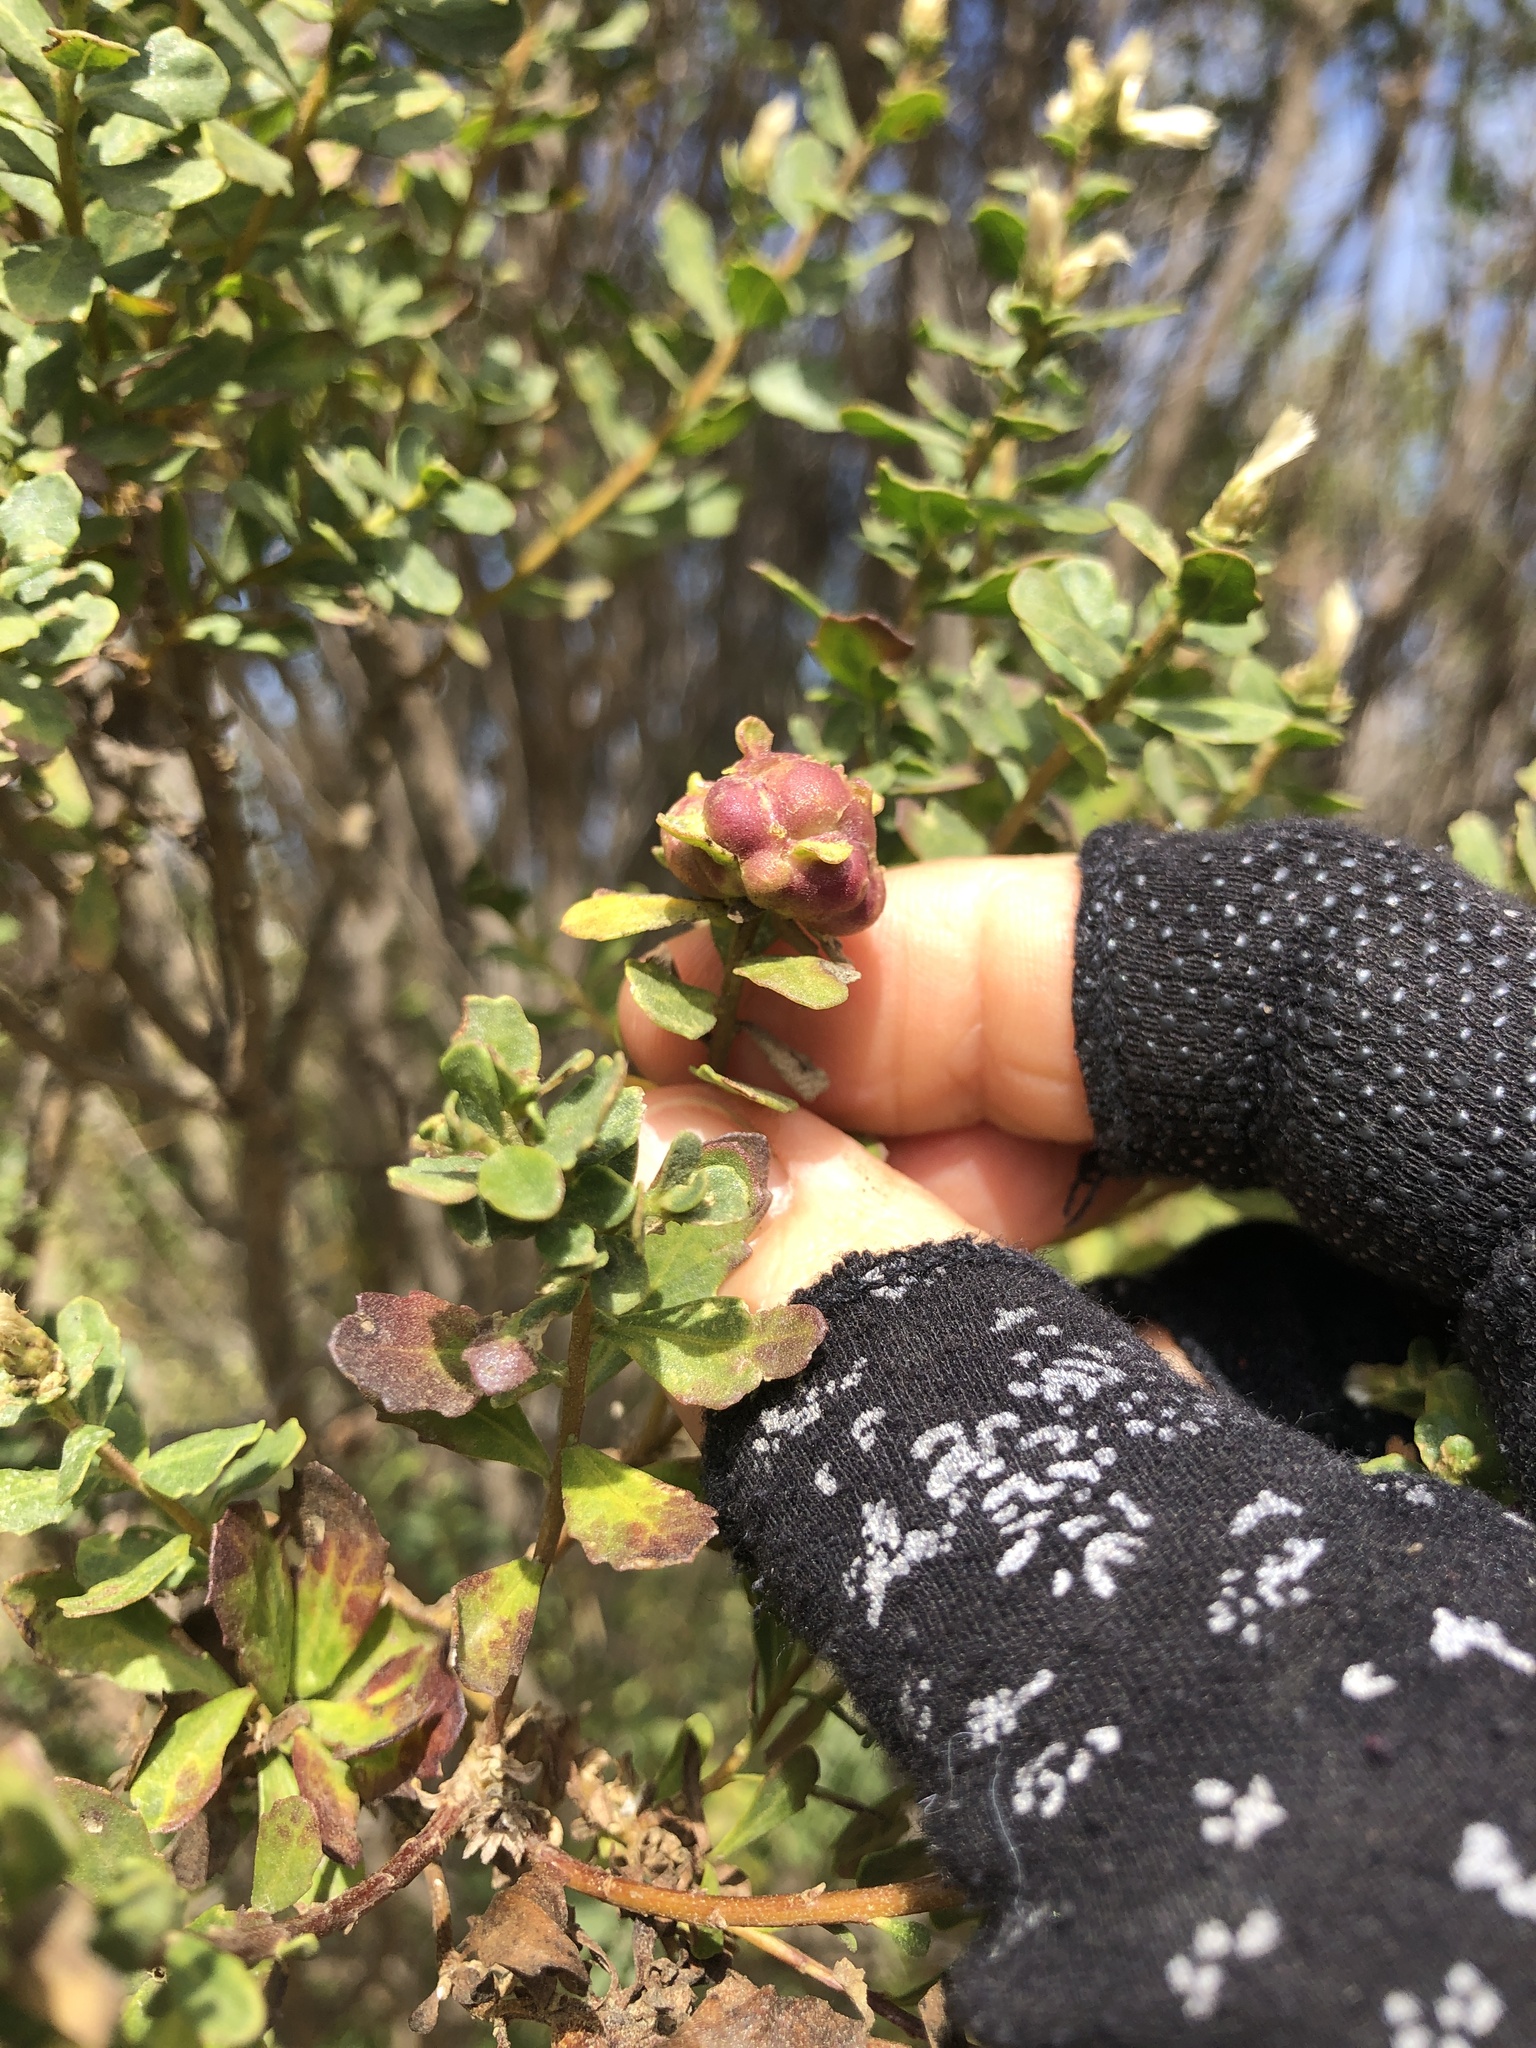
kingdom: Animalia
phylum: Arthropoda
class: Insecta
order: Diptera
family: Cecidomyiidae
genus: Rhopalomyia
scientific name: Rhopalomyia californica
